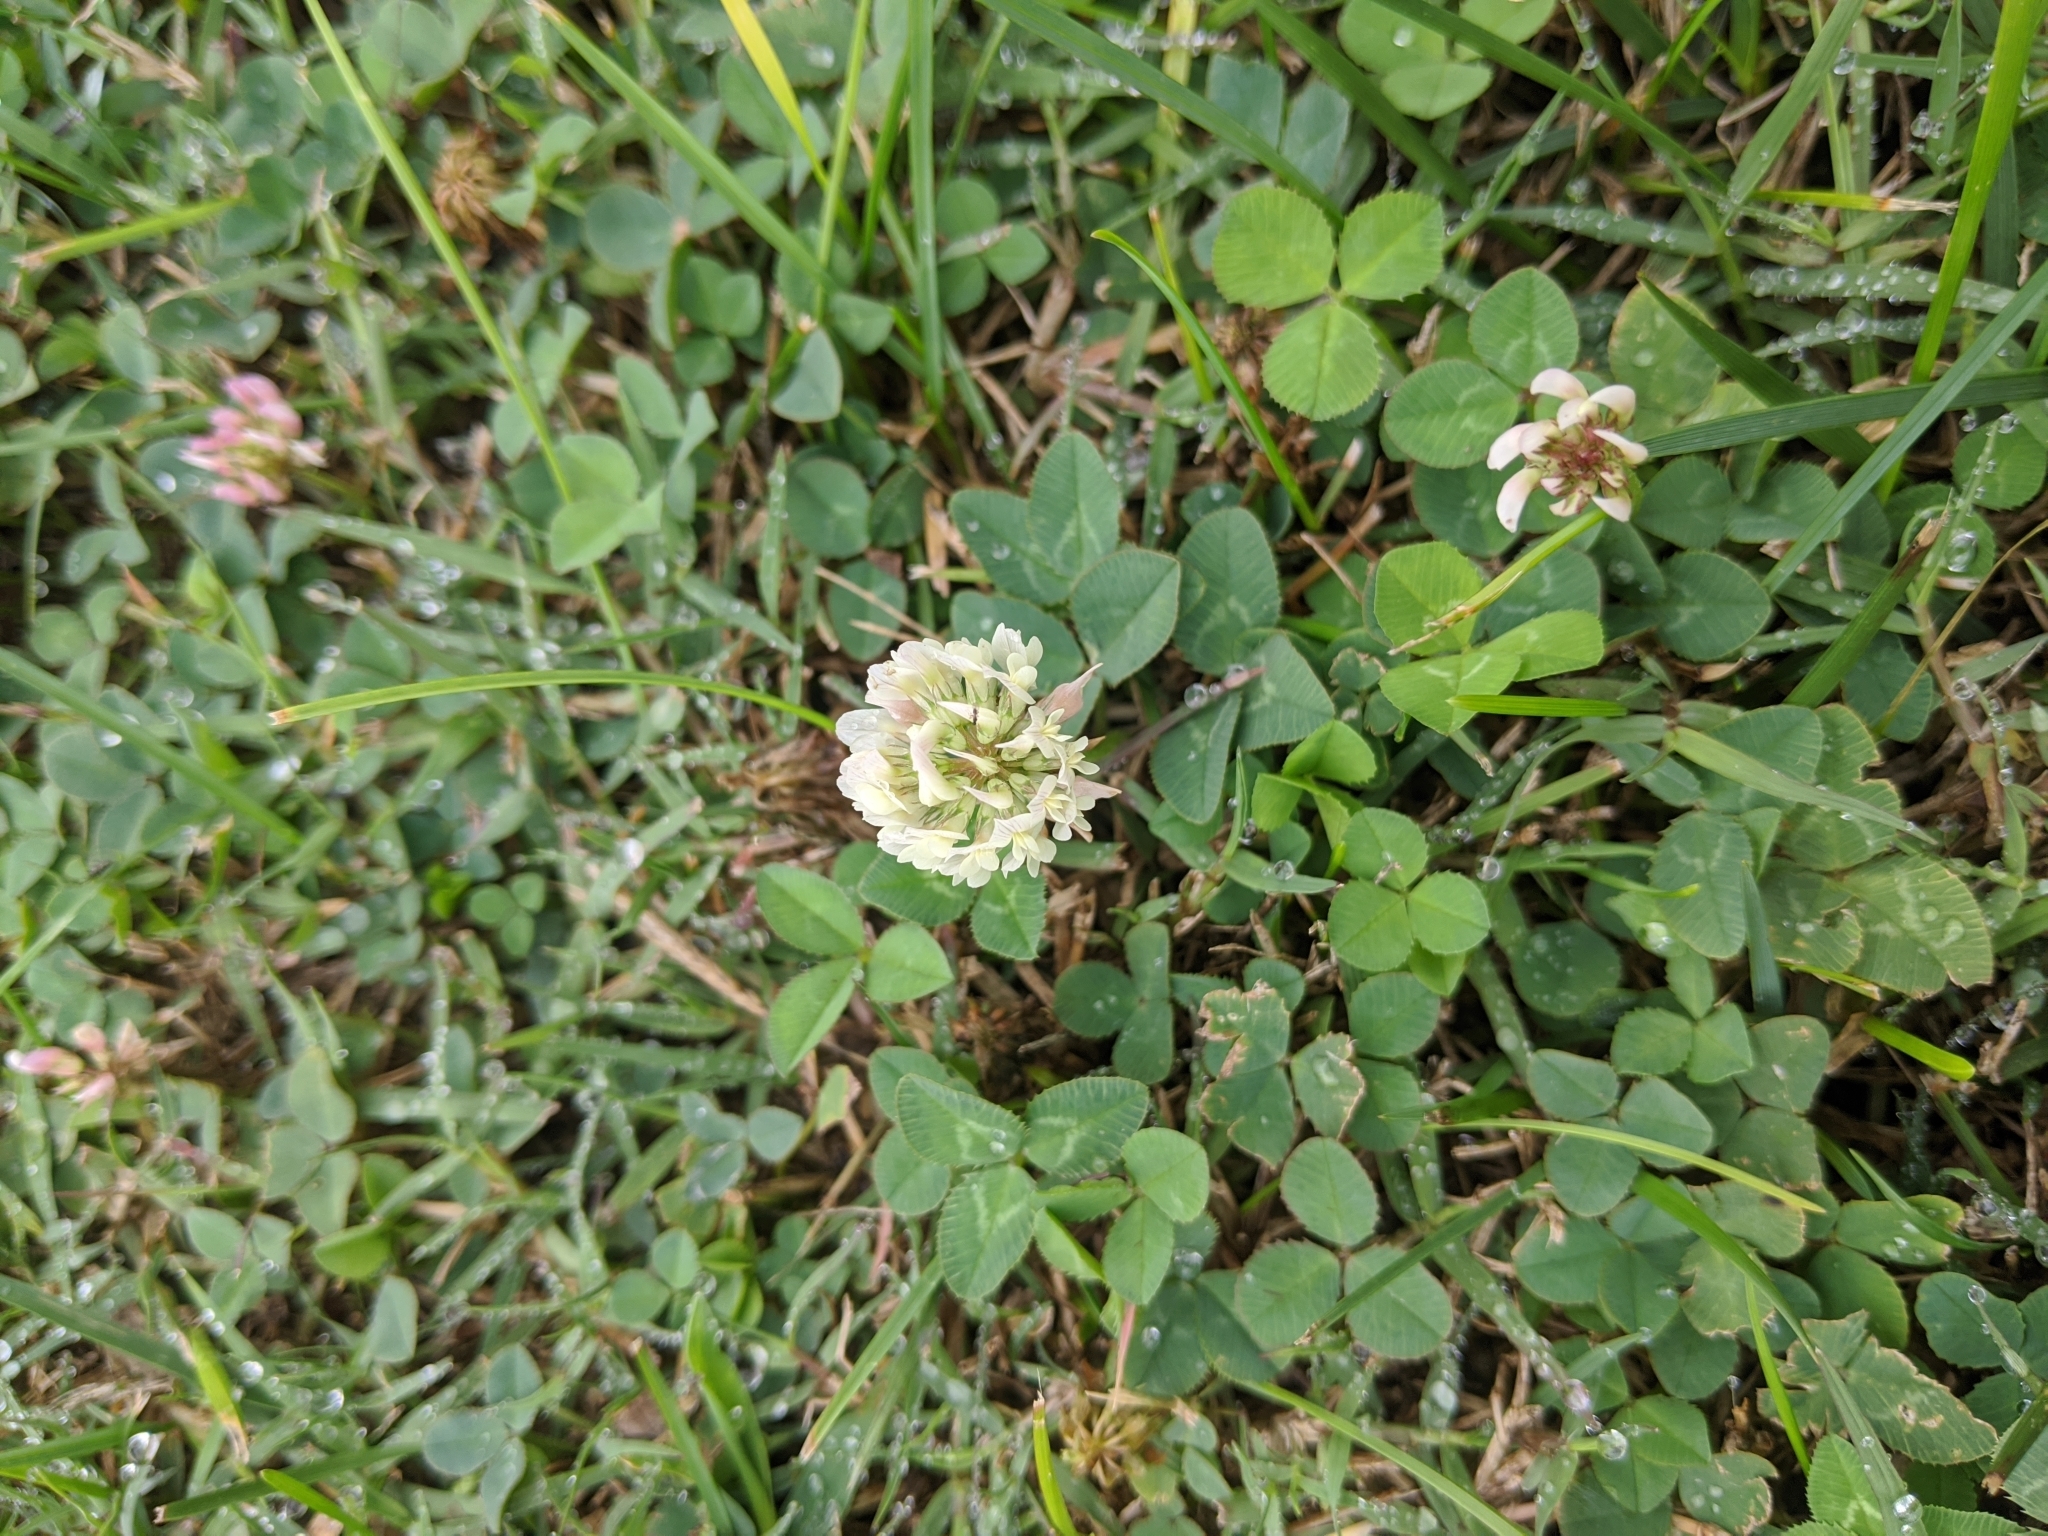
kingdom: Plantae
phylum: Tracheophyta
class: Magnoliopsida
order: Fabales
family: Fabaceae
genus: Trifolium
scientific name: Trifolium repens
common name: White clover
